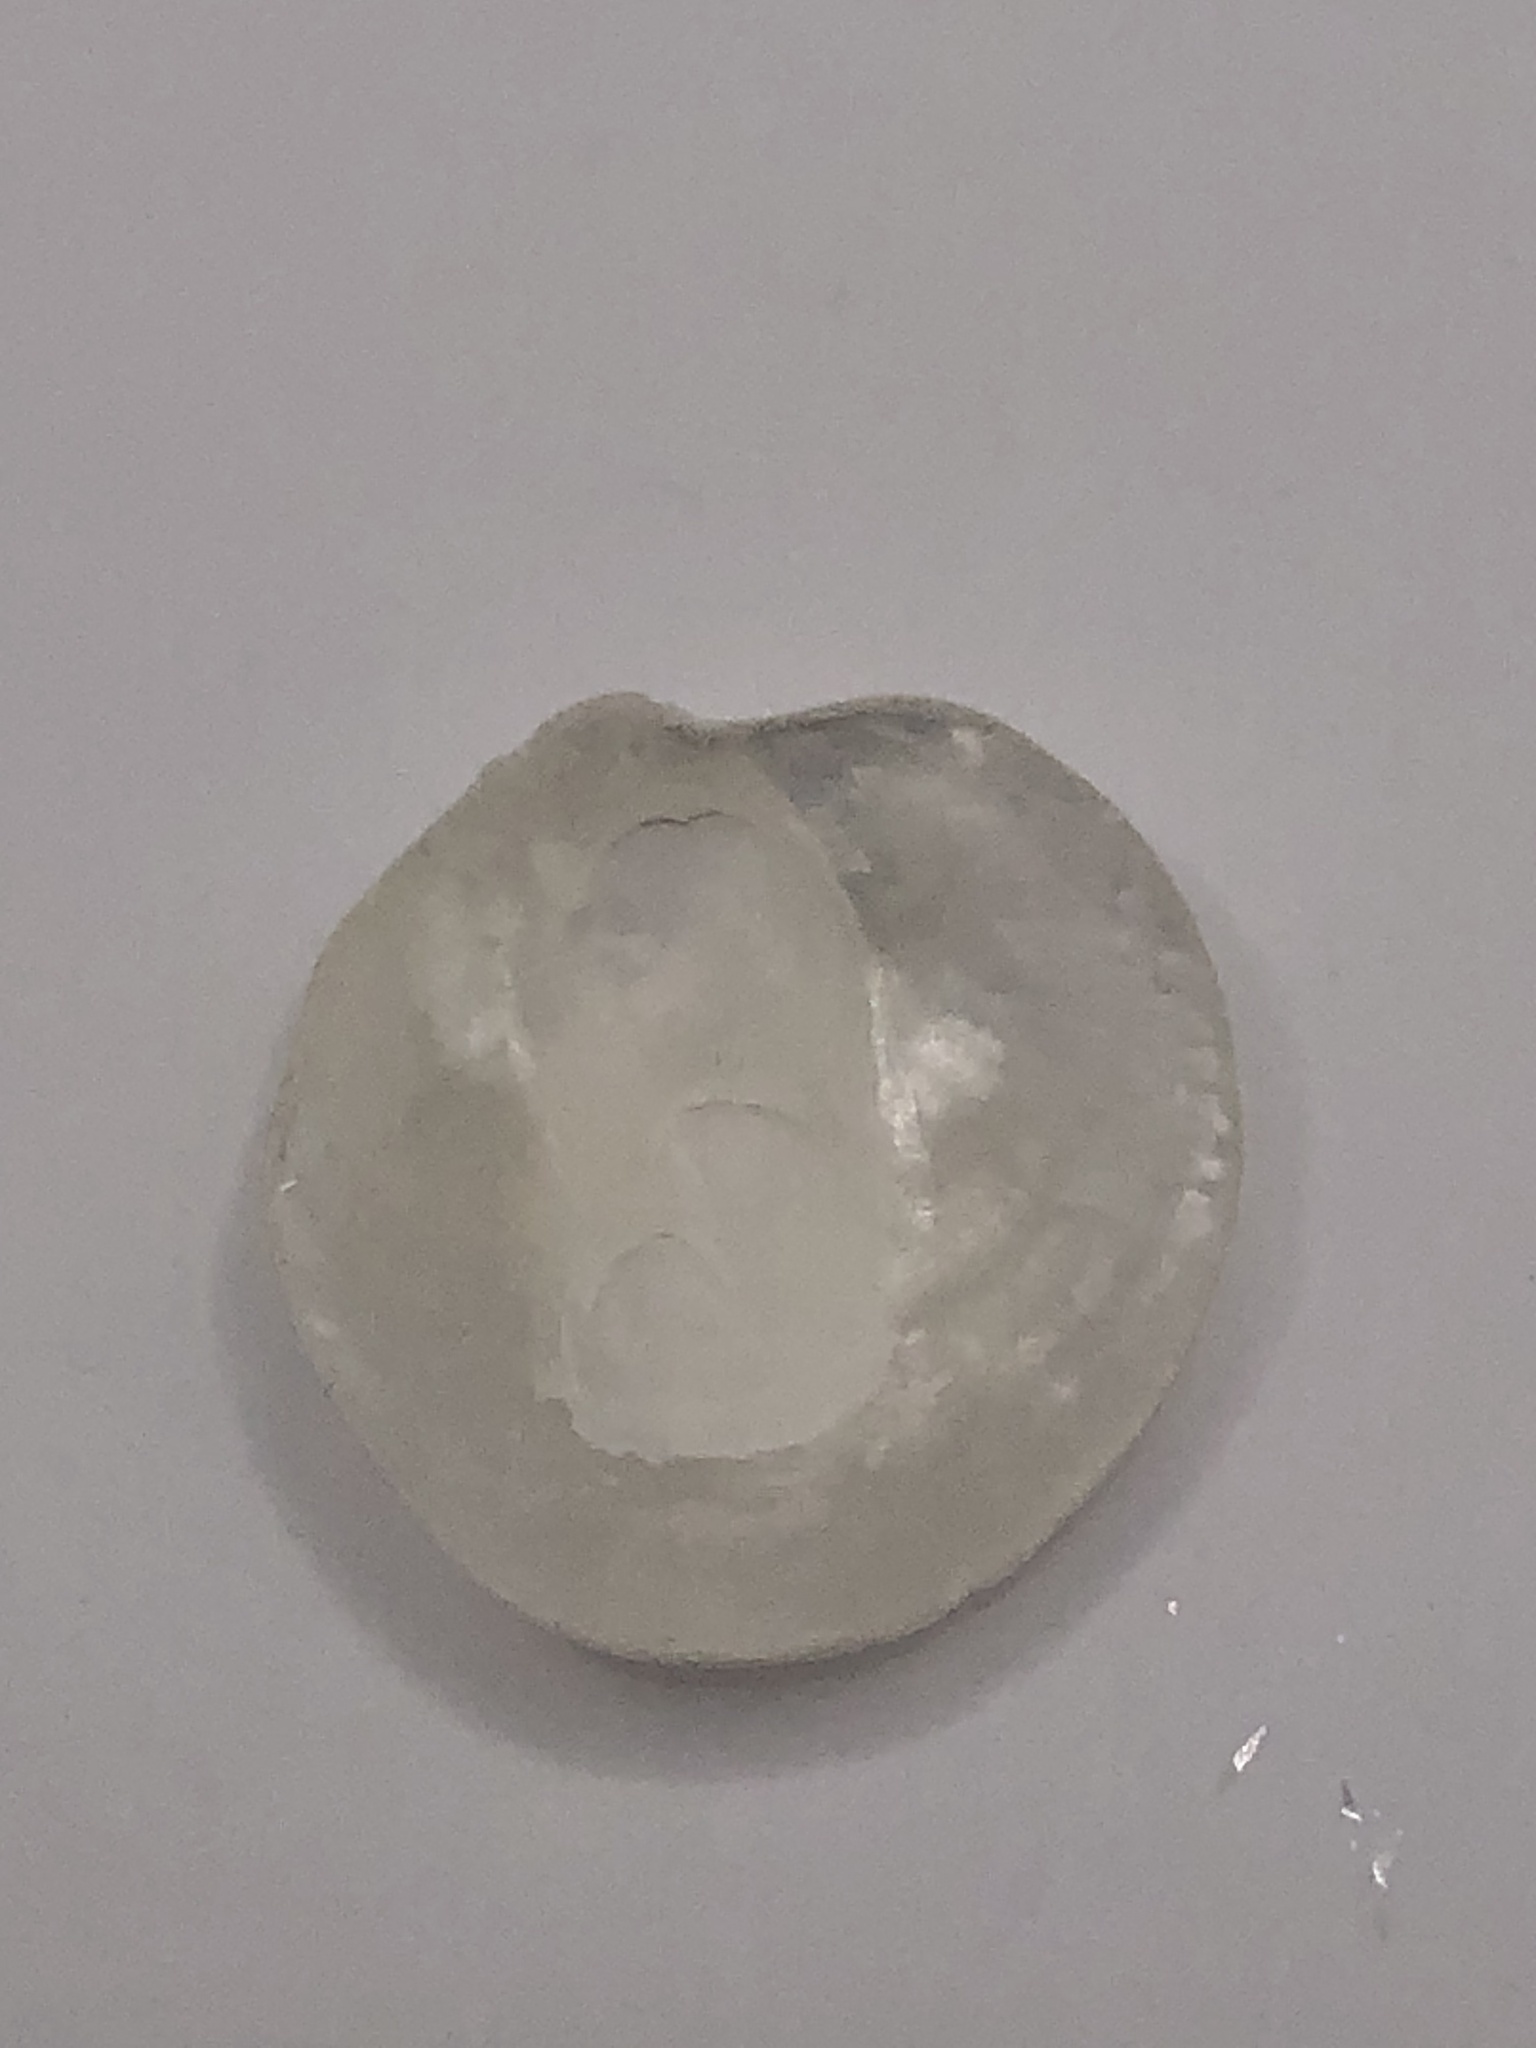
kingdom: Animalia
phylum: Mollusca
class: Bivalvia
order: Pectinida
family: Anomiidae
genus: Anomia
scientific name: Anomia simplex
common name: Common jingle shell
